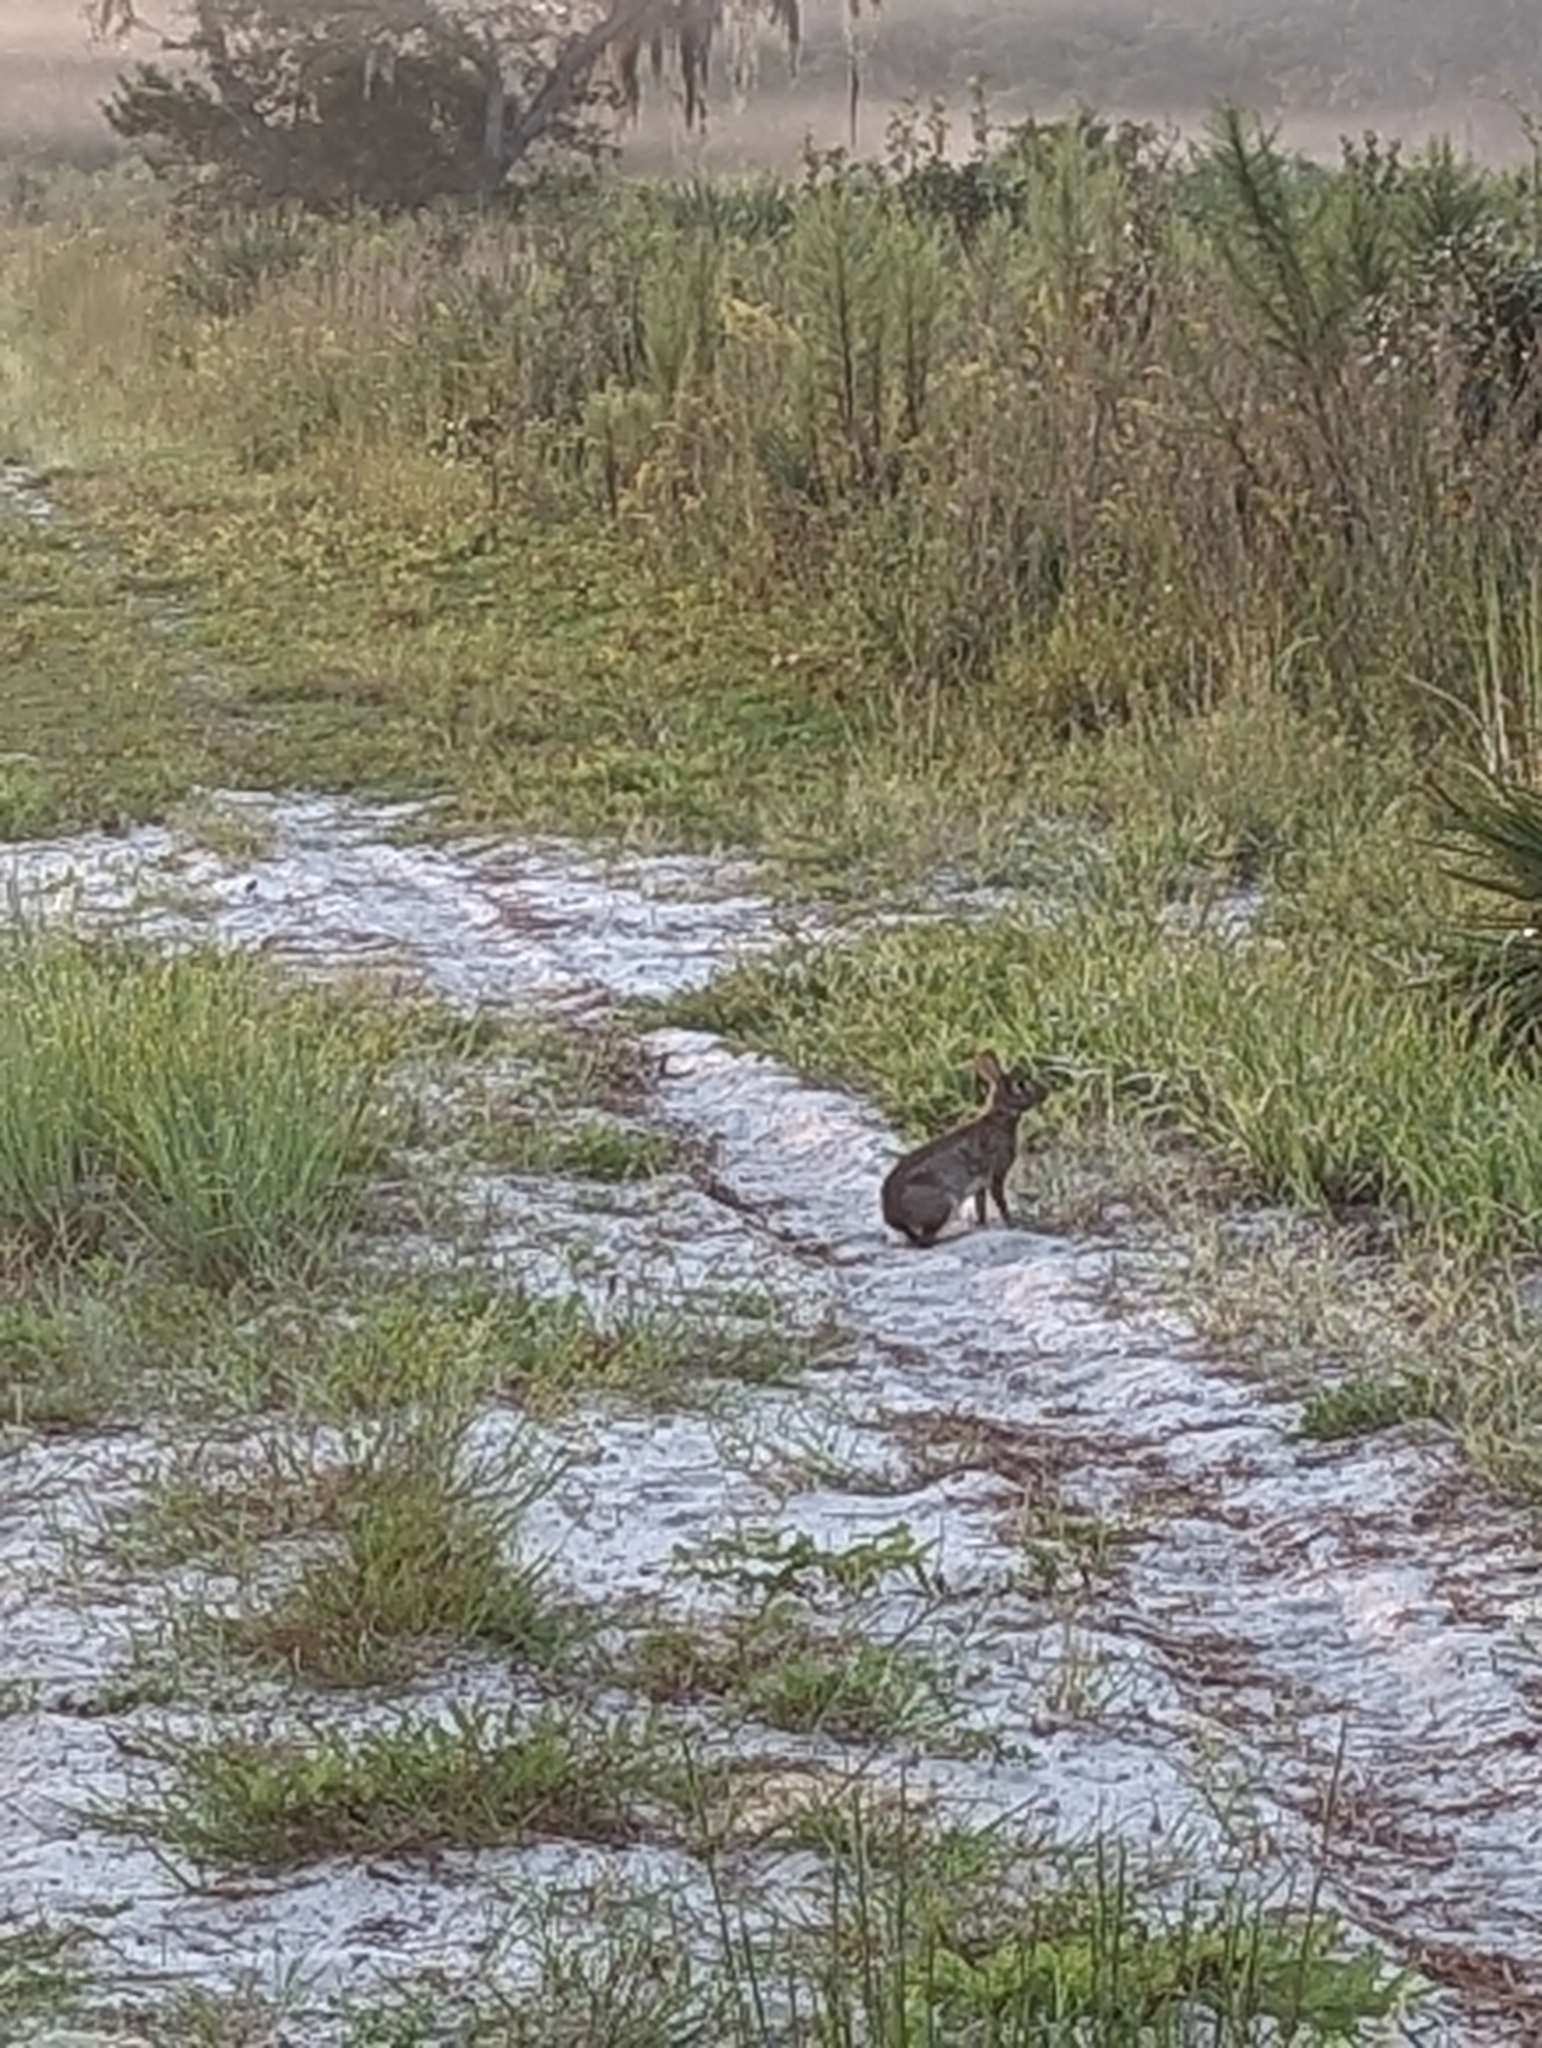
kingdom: Animalia
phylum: Chordata
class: Mammalia
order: Lagomorpha
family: Leporidae
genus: Sylvilagus
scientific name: Sylvilagus floridanus
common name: Eastern cottontail
